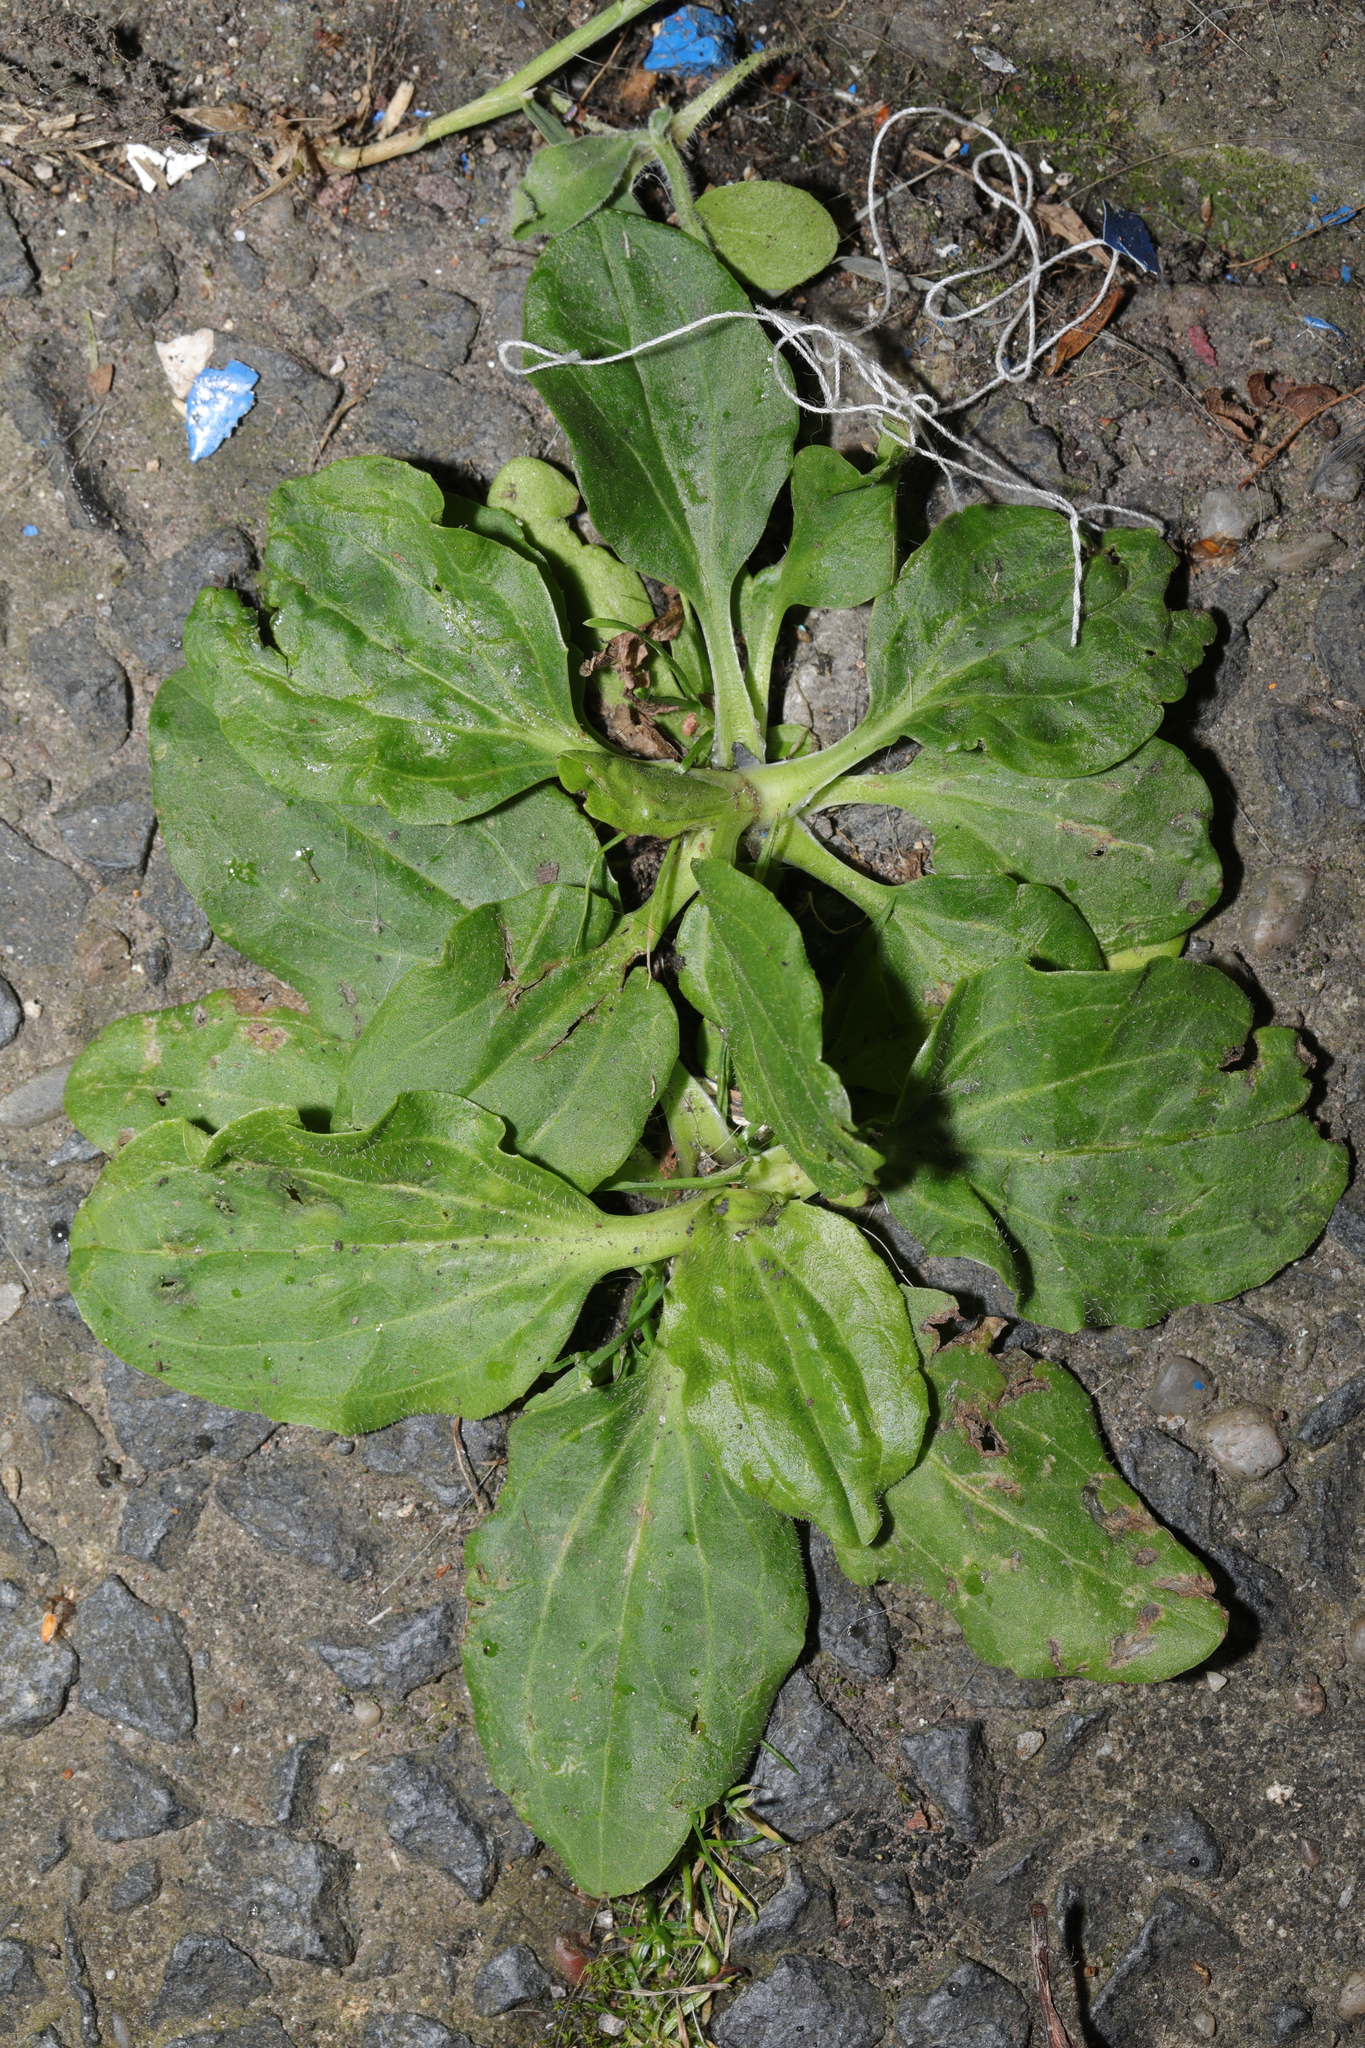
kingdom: Plantae
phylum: Tracheophyta
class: Magnoliopsida
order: Lamiales
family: Plantaginaceae
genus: Plantago
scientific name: Plantago major
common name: Common plantain
